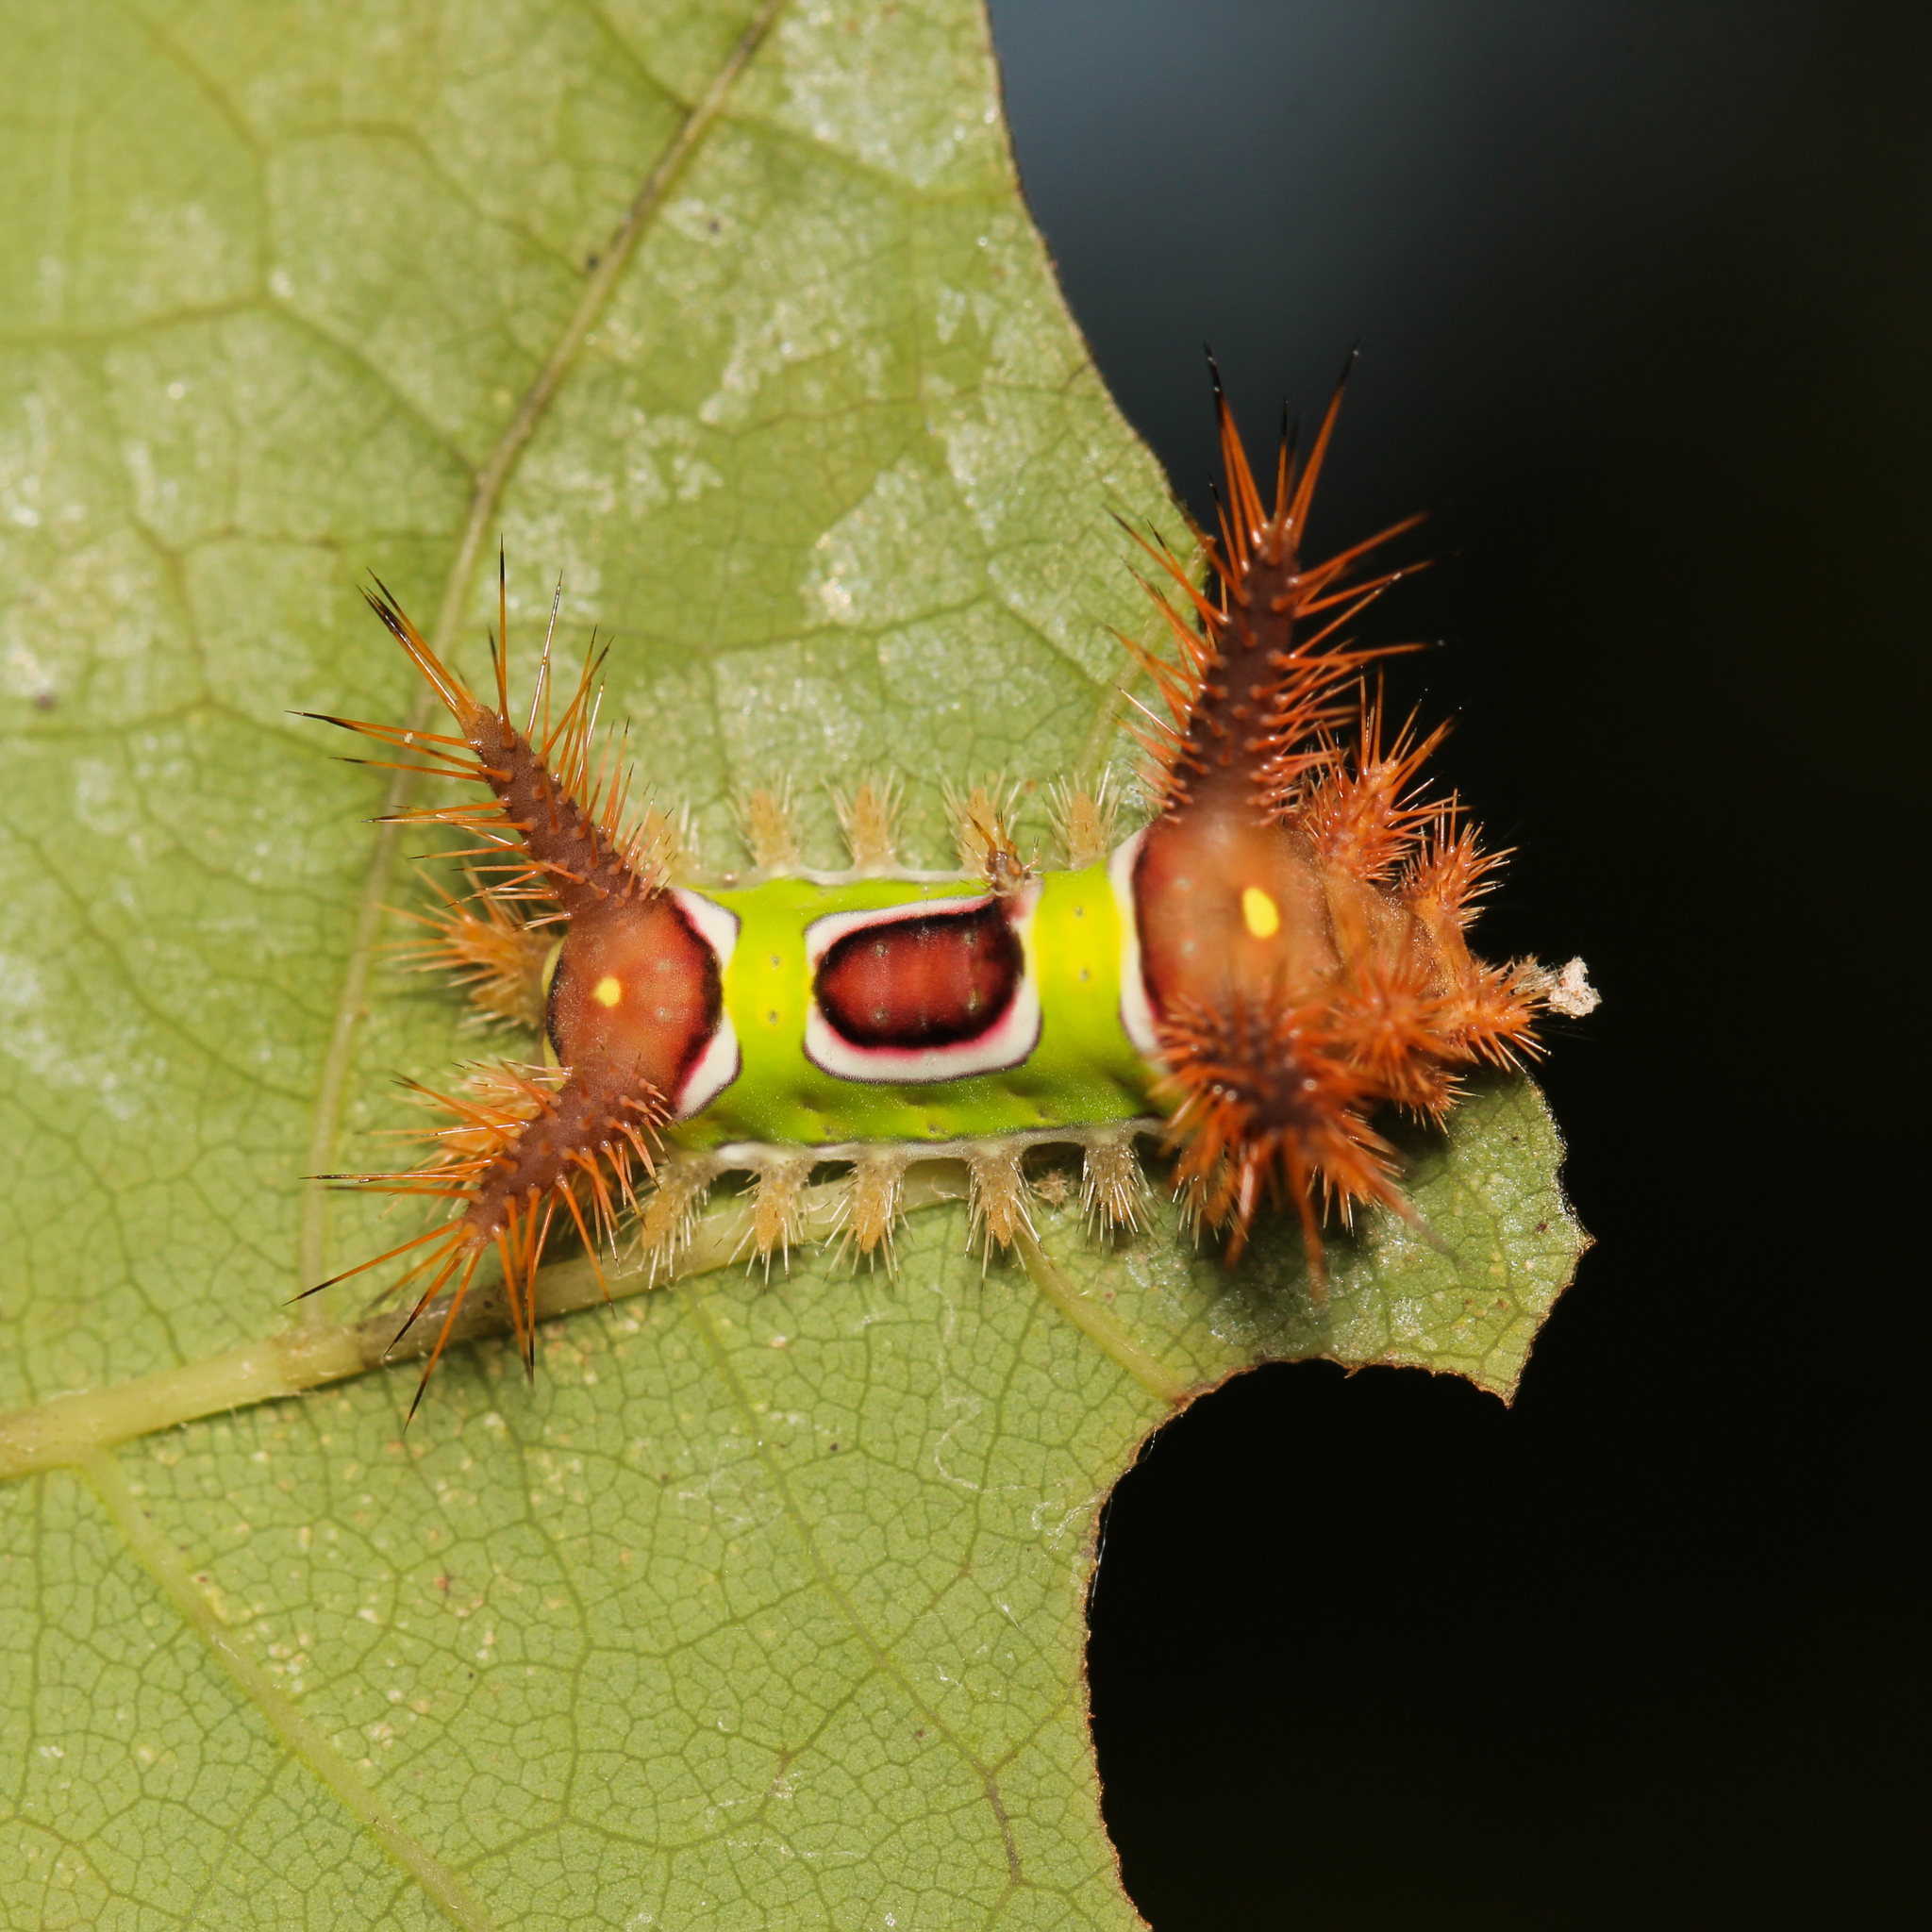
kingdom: Animalia
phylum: Arthropoda
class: Insecta
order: Lepidoptera
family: Limacodidae
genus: Acharia
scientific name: Acharia stimulea
